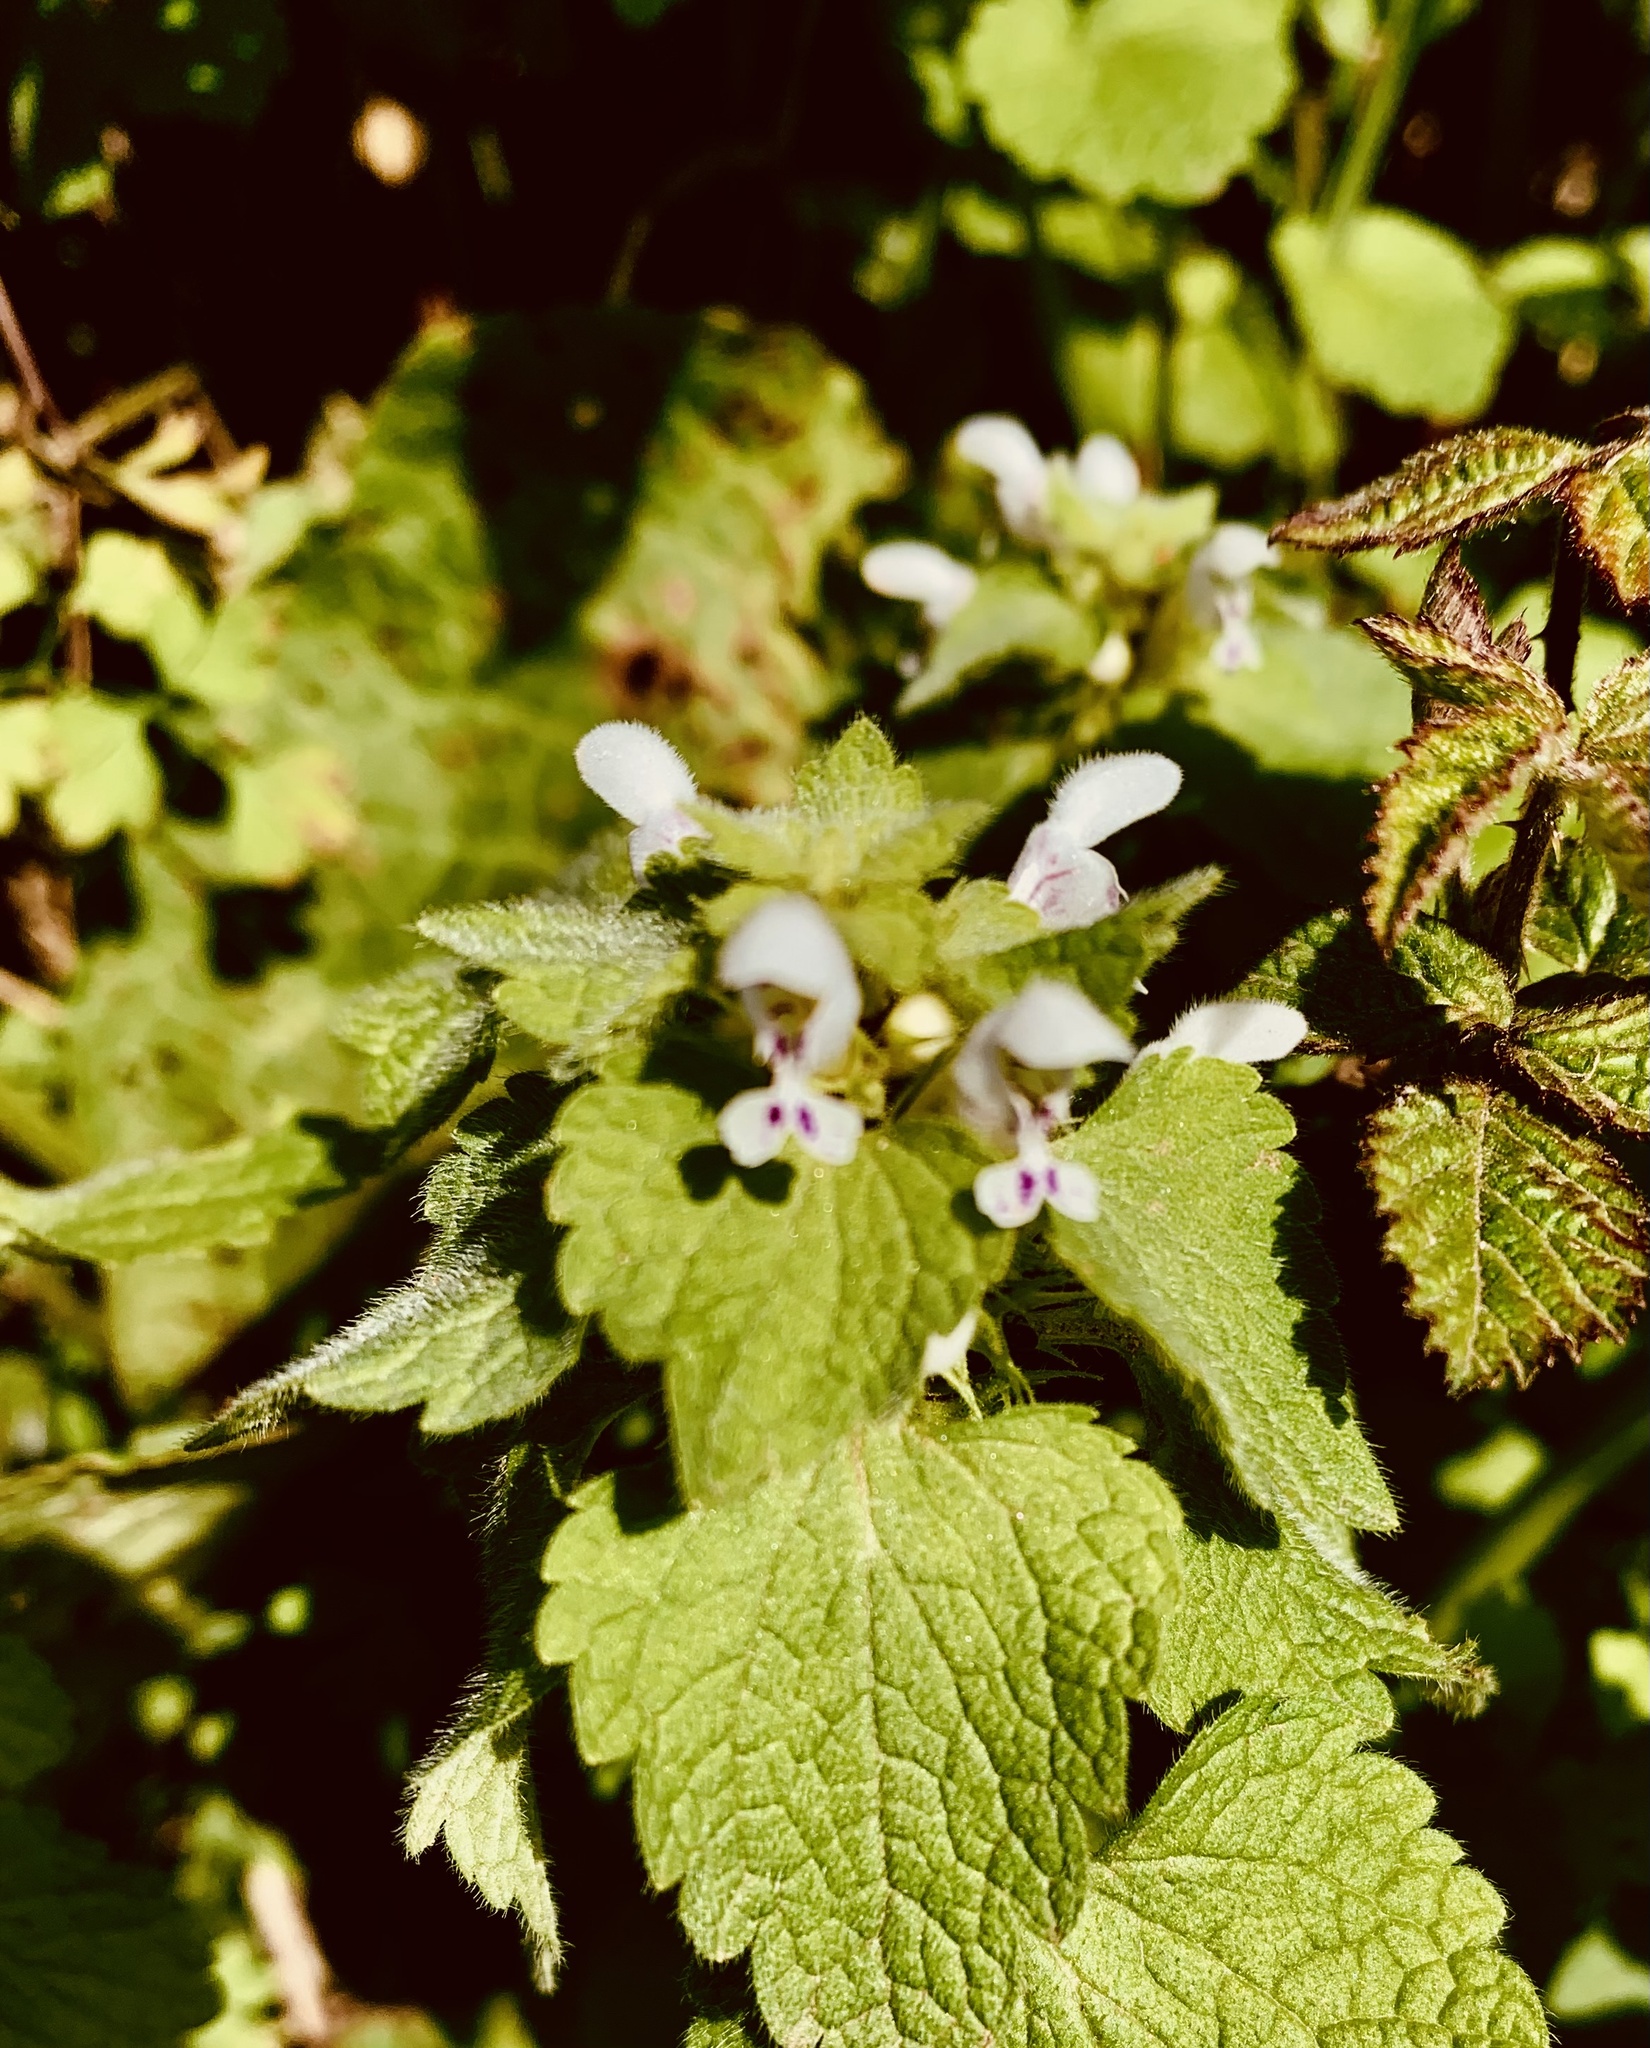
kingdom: Plantae
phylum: Tracheophyta
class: Magnoliopsida
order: Lamiales
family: Lamiaceae
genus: Lamium
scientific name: Lamium purpureum
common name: Red dead-nettle
